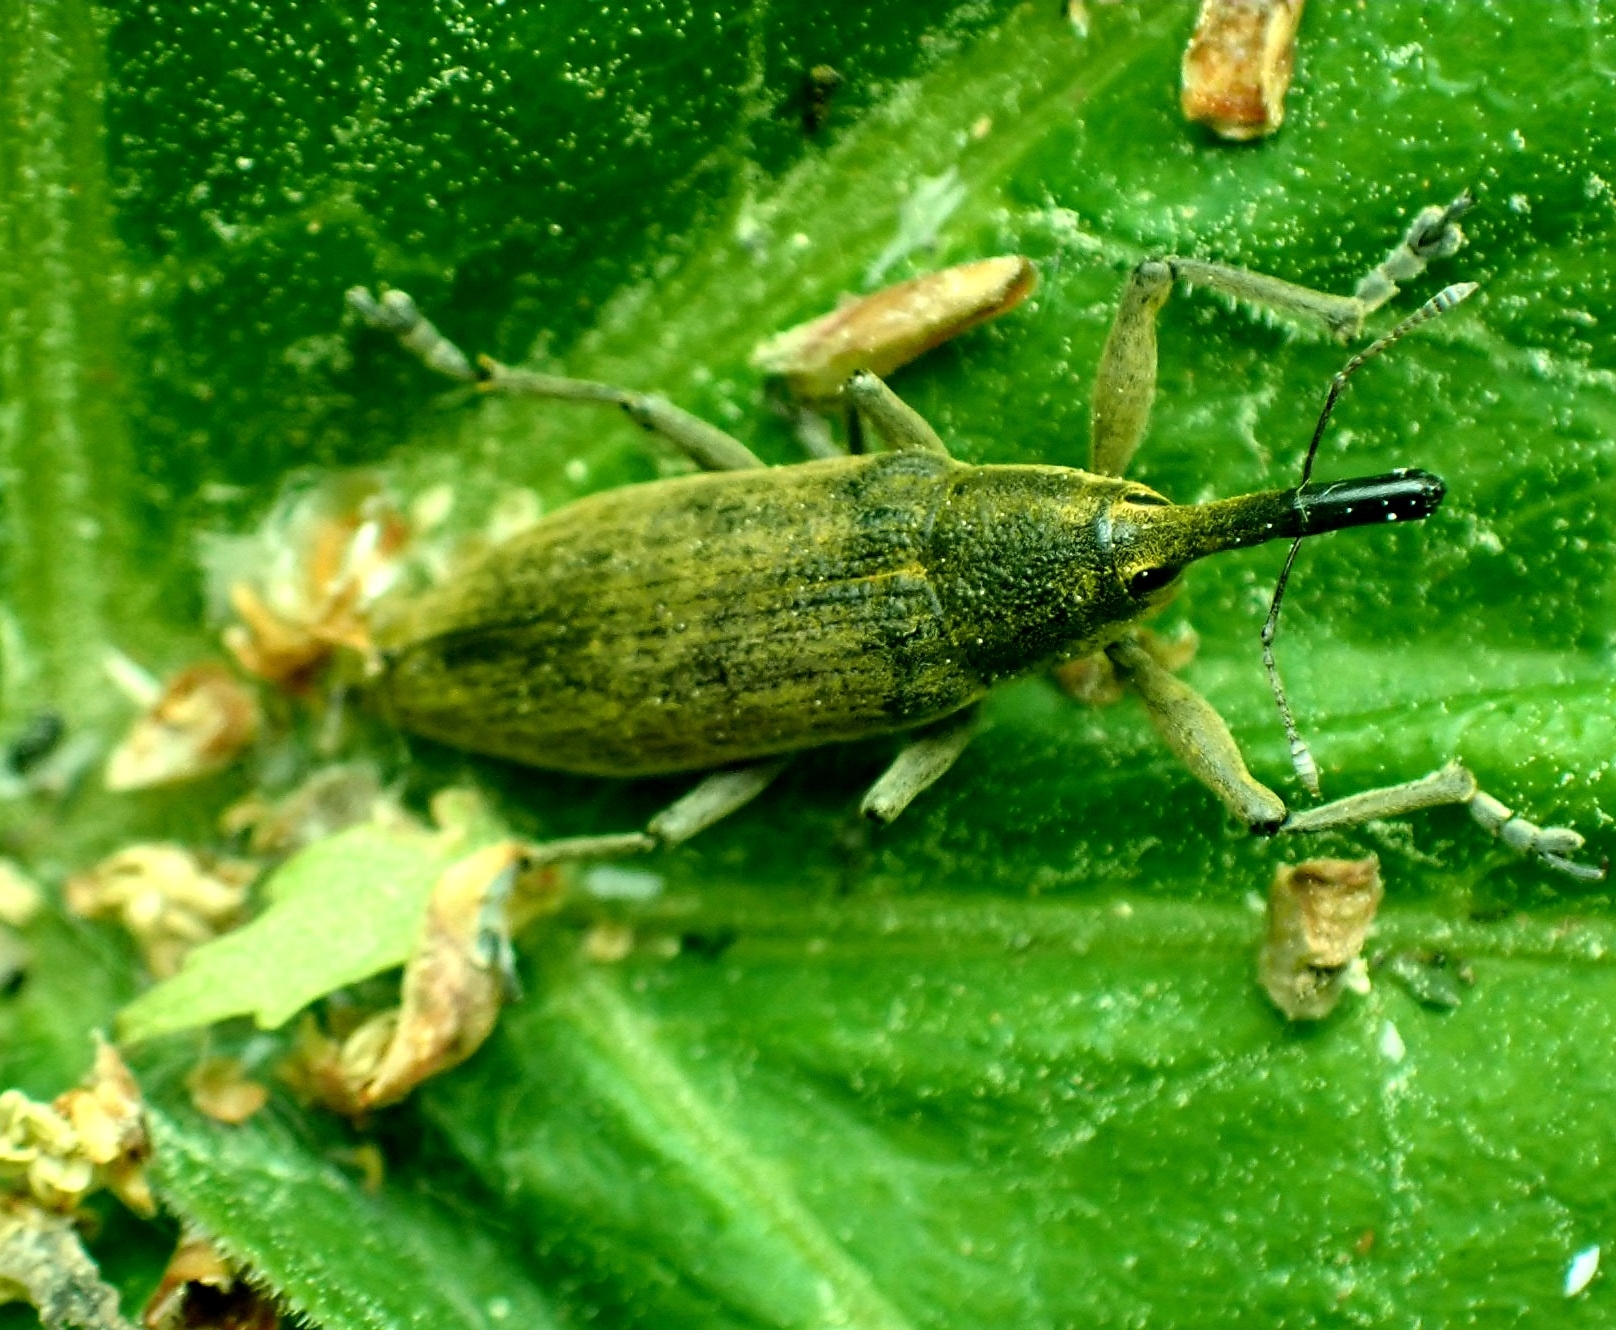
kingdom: Animalia
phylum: Arthropoda
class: Insecta
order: Coleoptera
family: Curculionidae
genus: Lixus
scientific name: Lixus iridis
